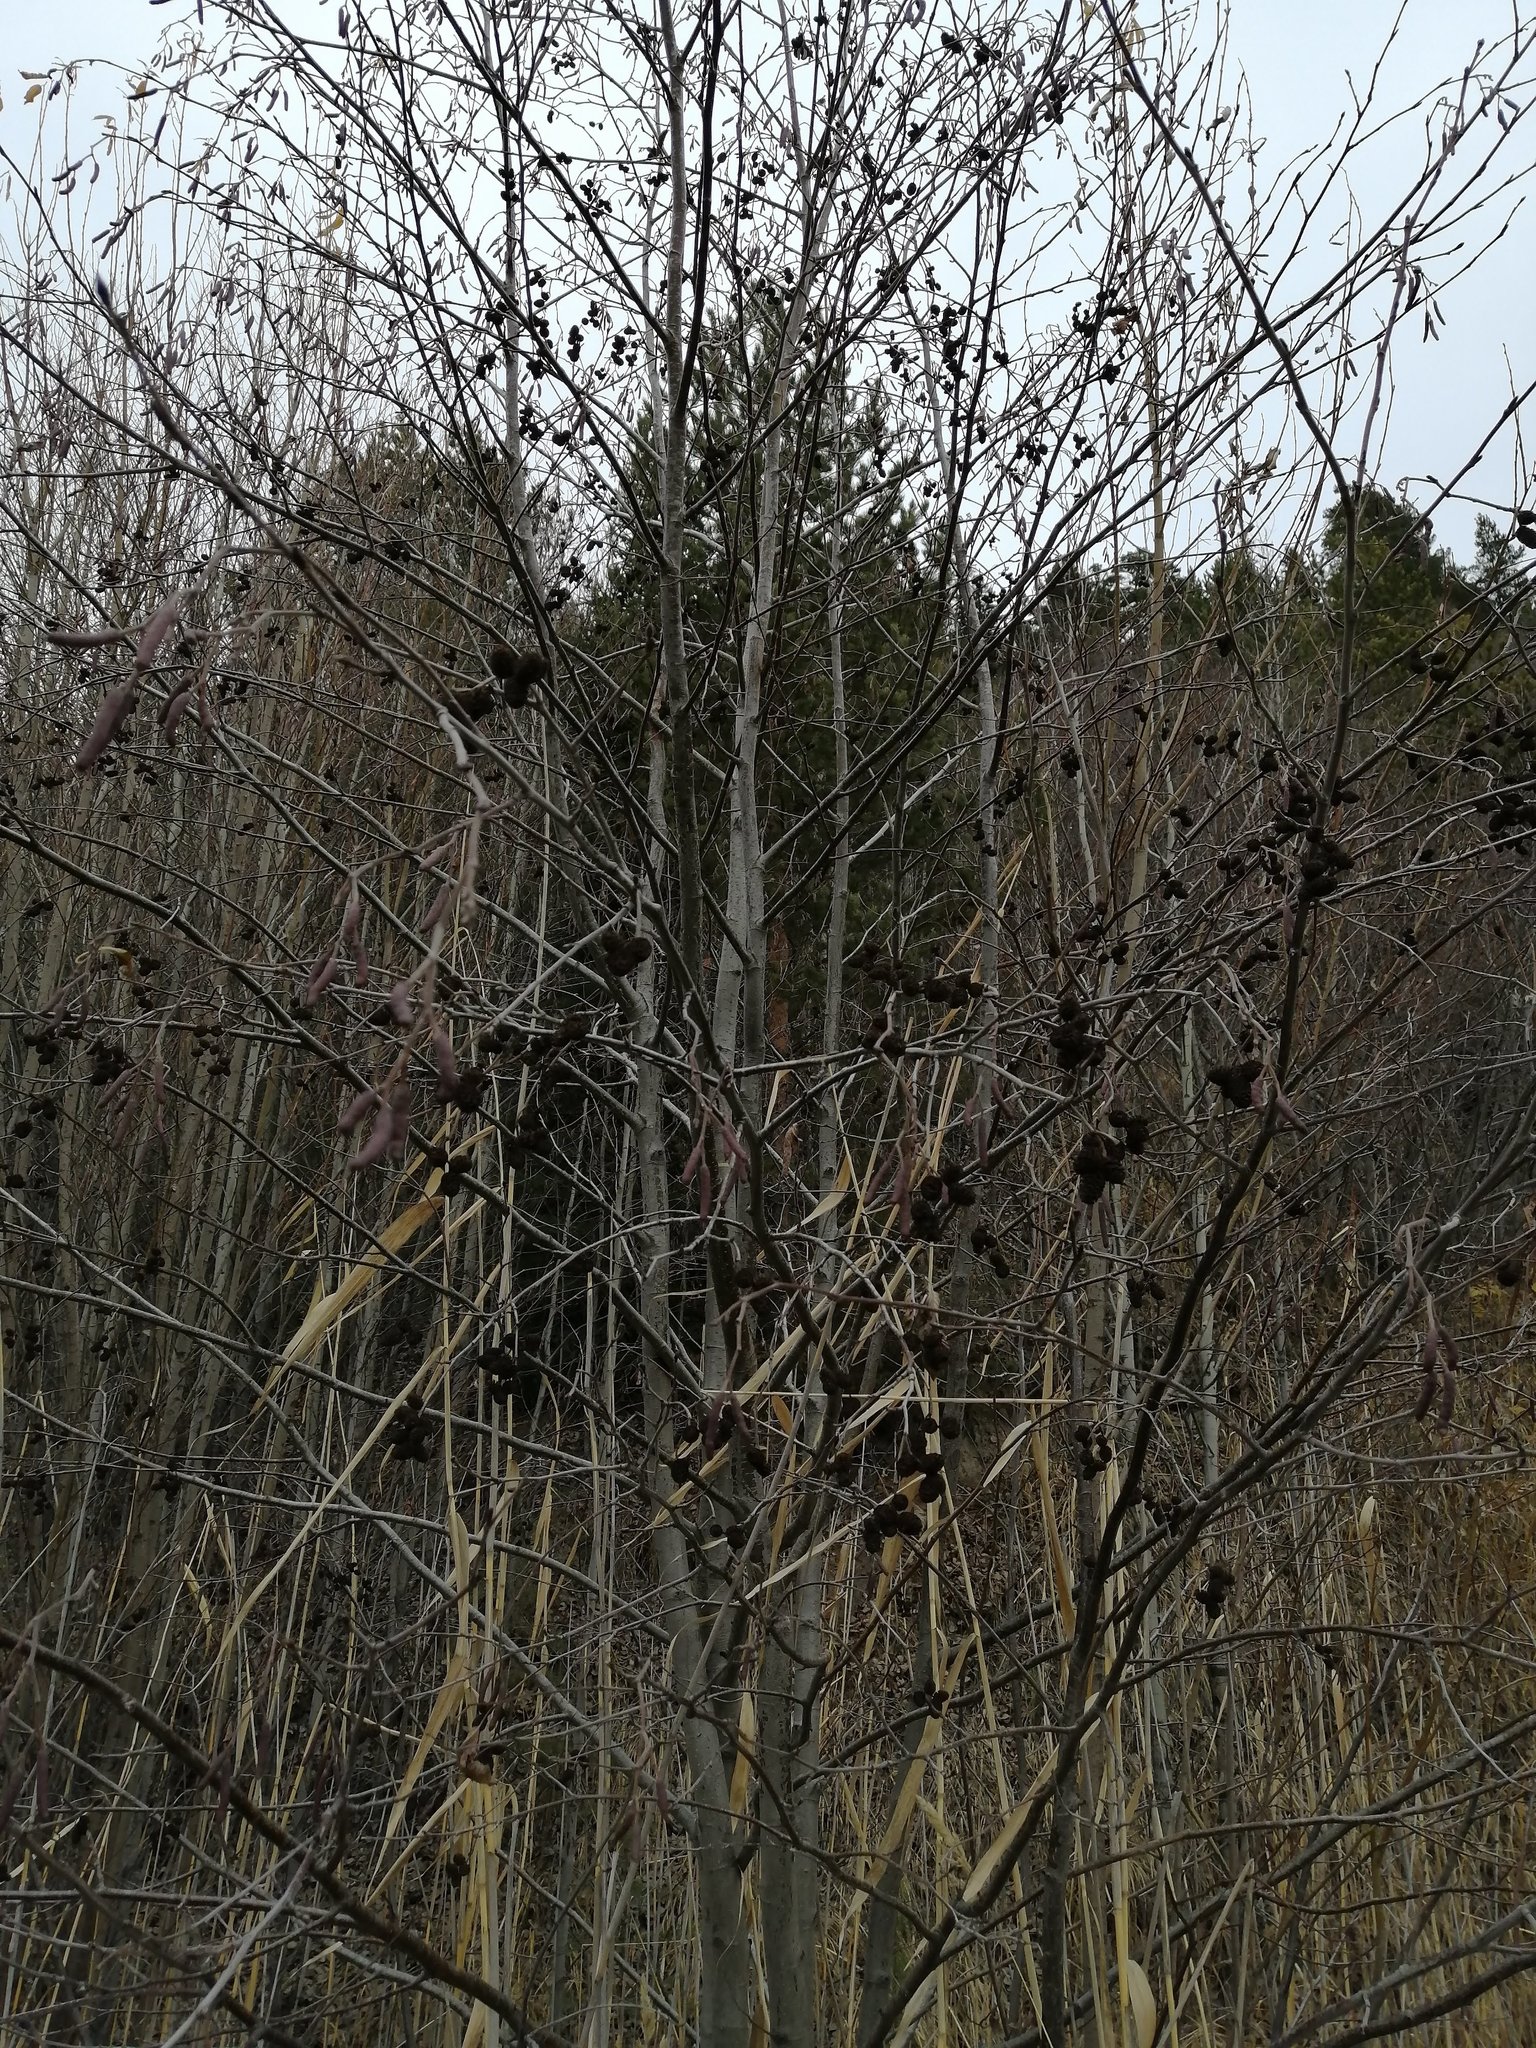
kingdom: Plantae
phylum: Tracheophyta
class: Magnoliopsida
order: Fagales
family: Betulaceae
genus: Alnus
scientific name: Alnus incana
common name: Grey alder
